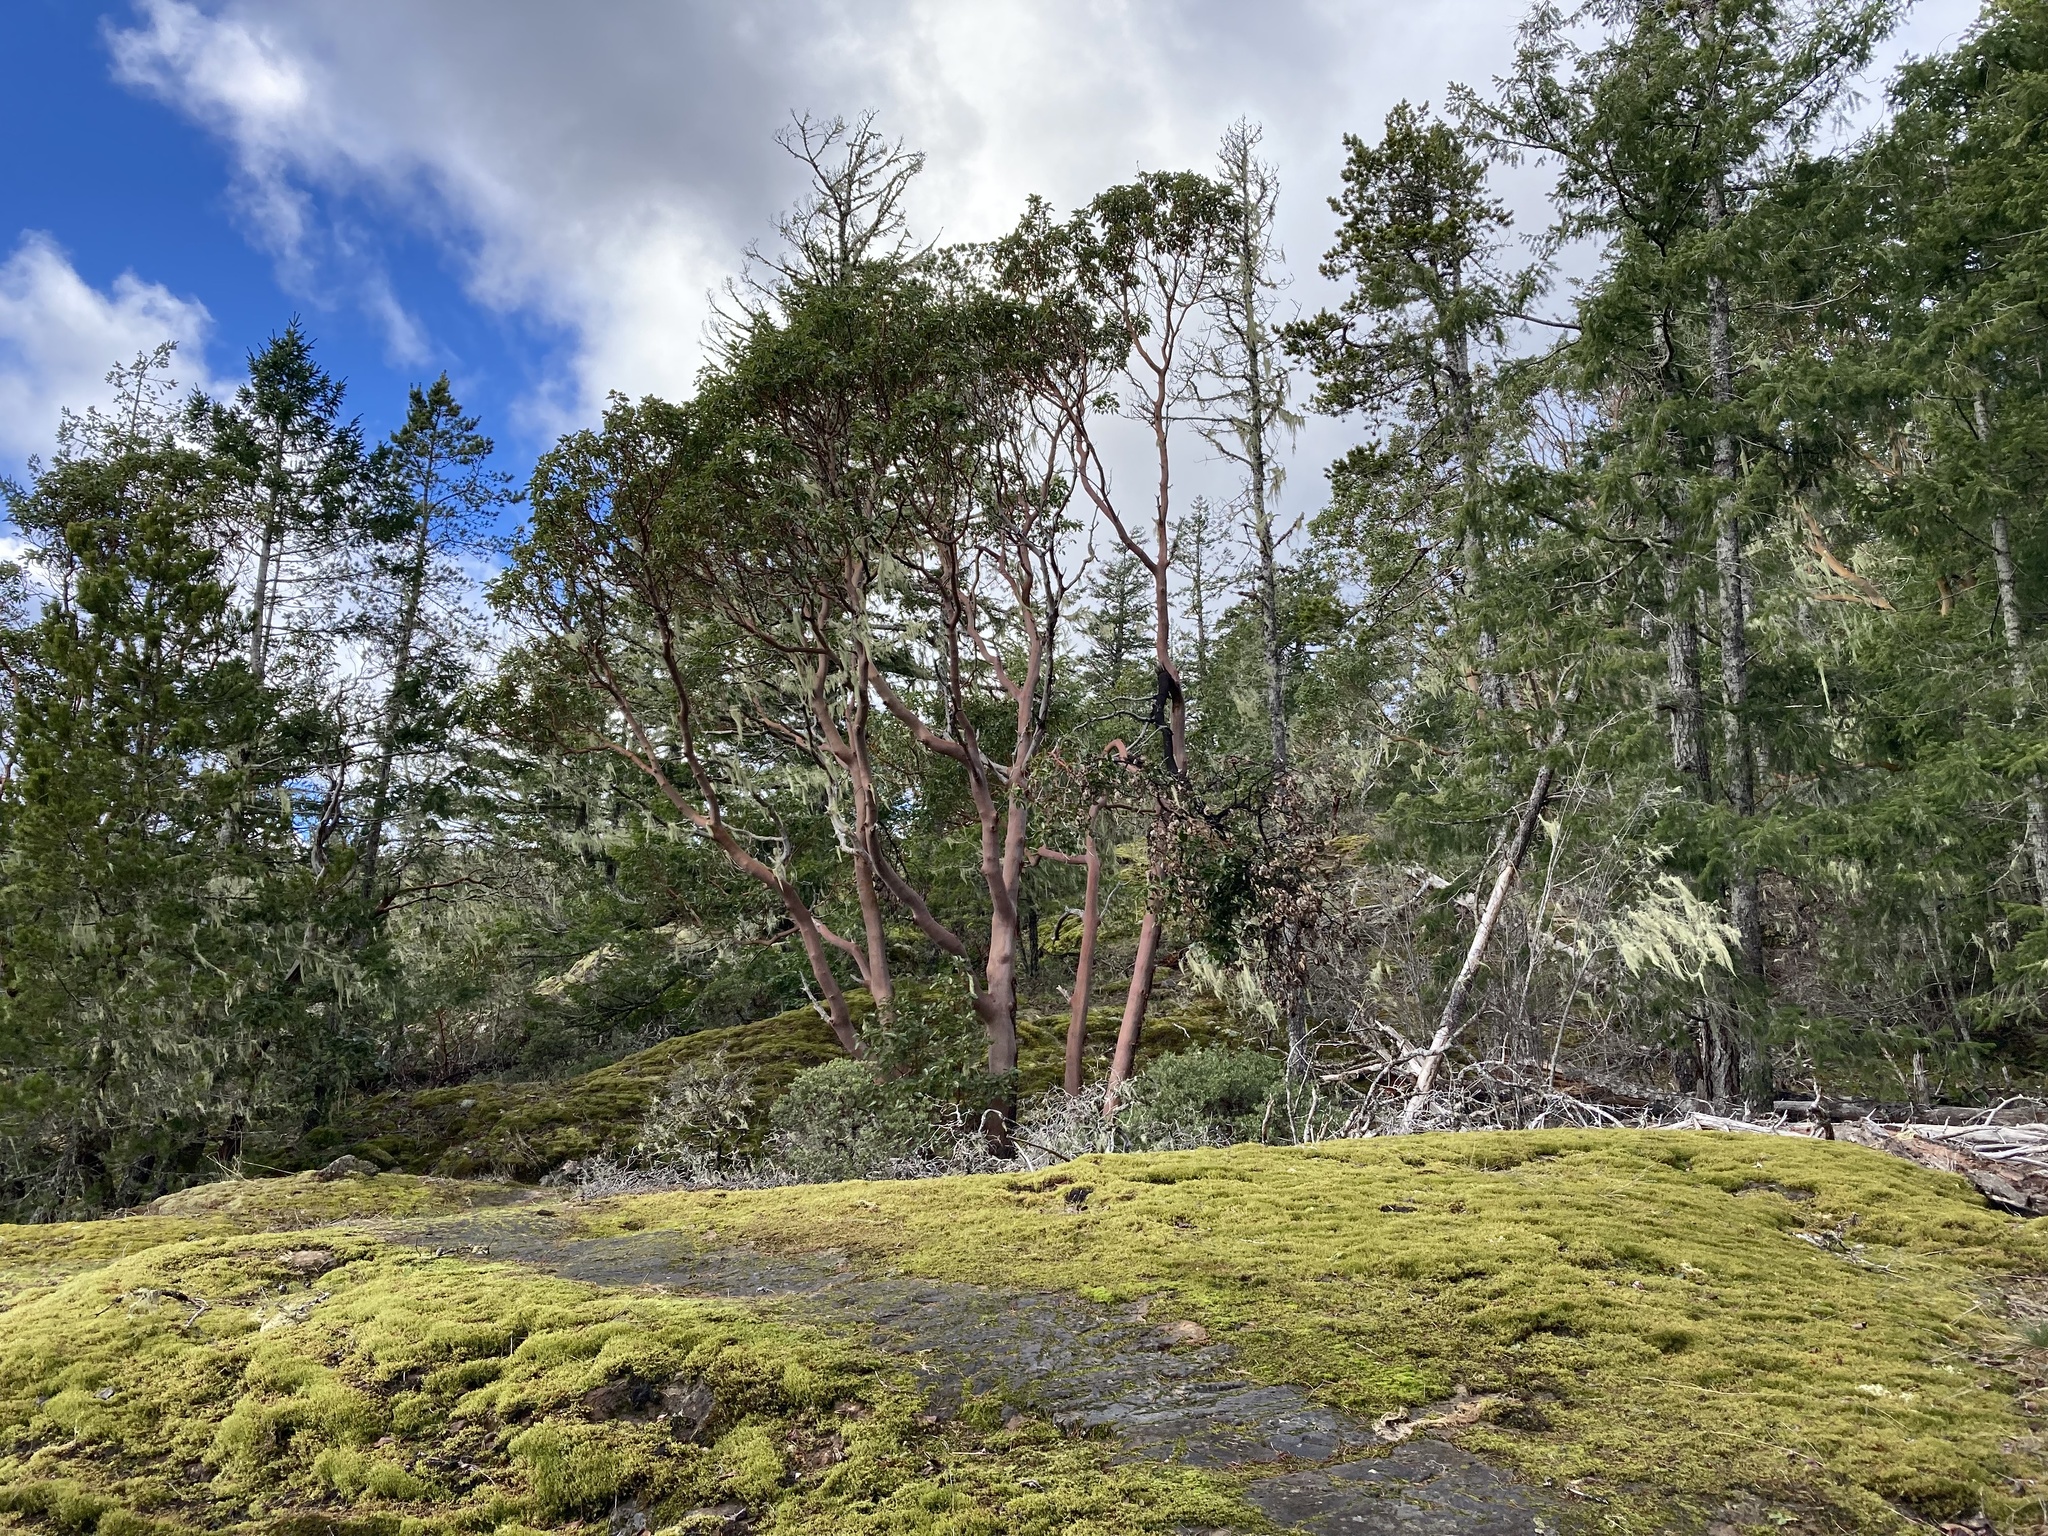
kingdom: Plantae
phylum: Tracheophyta
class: Magnoliopsida
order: Ericales
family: Ericaceae
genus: Arbutus
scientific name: Arbutus menziesii
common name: Pacific madrone
